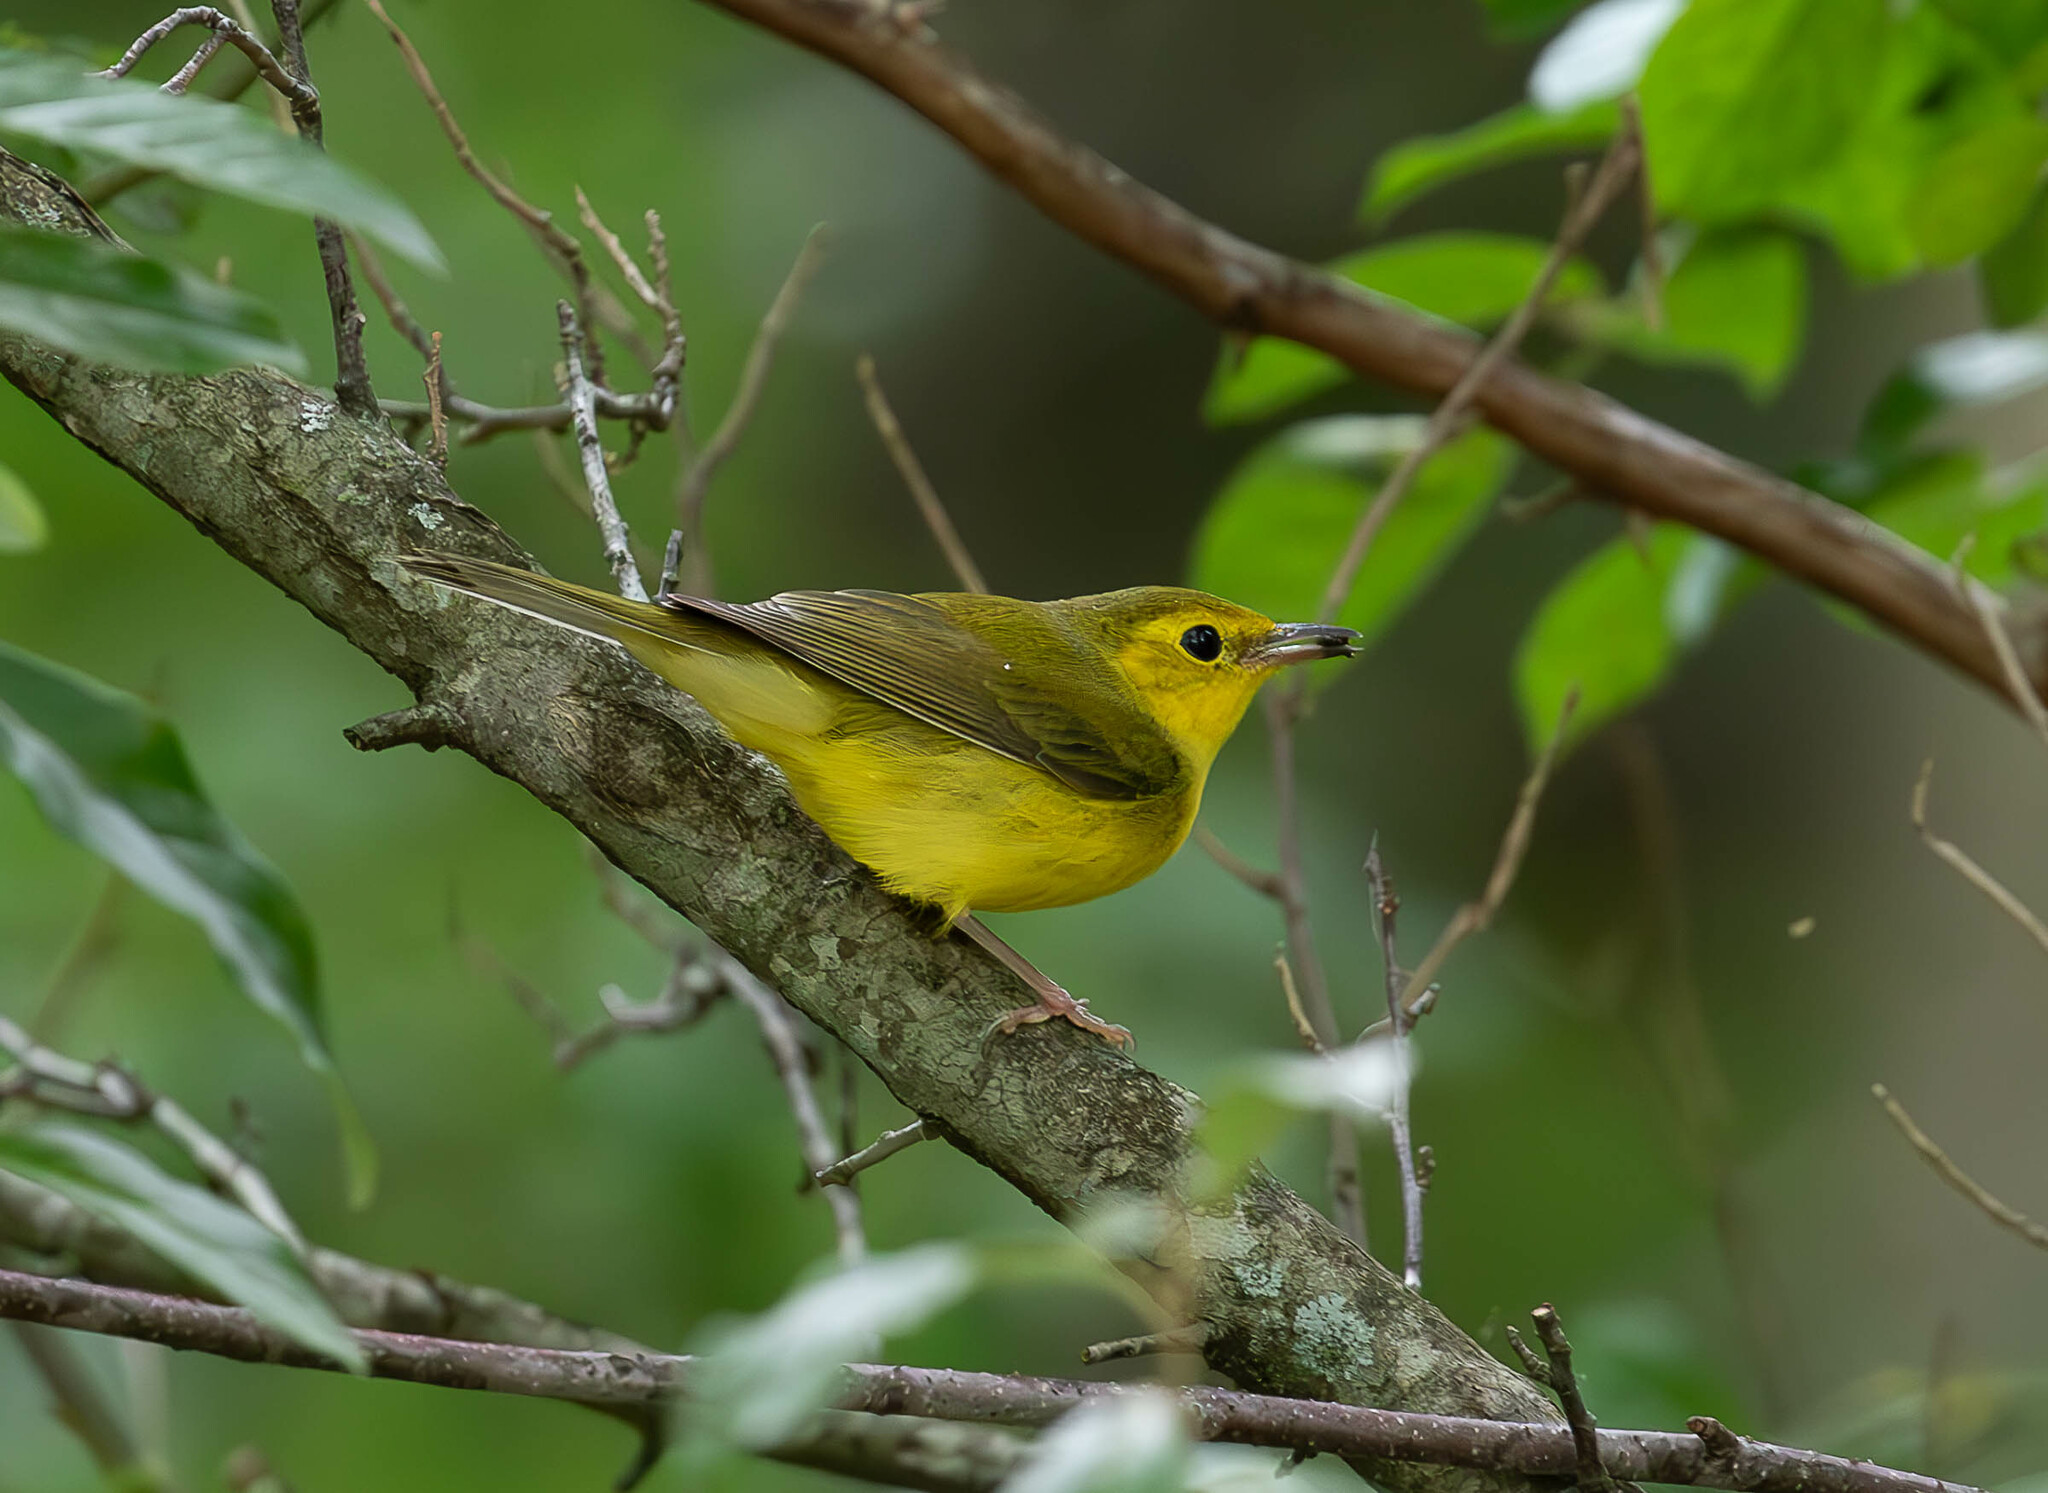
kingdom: Animalia
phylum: Chordata
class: Aves
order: Passeriformes
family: Parulidae
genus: Setophaga
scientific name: Setophaga citrina
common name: Hooded warbler
